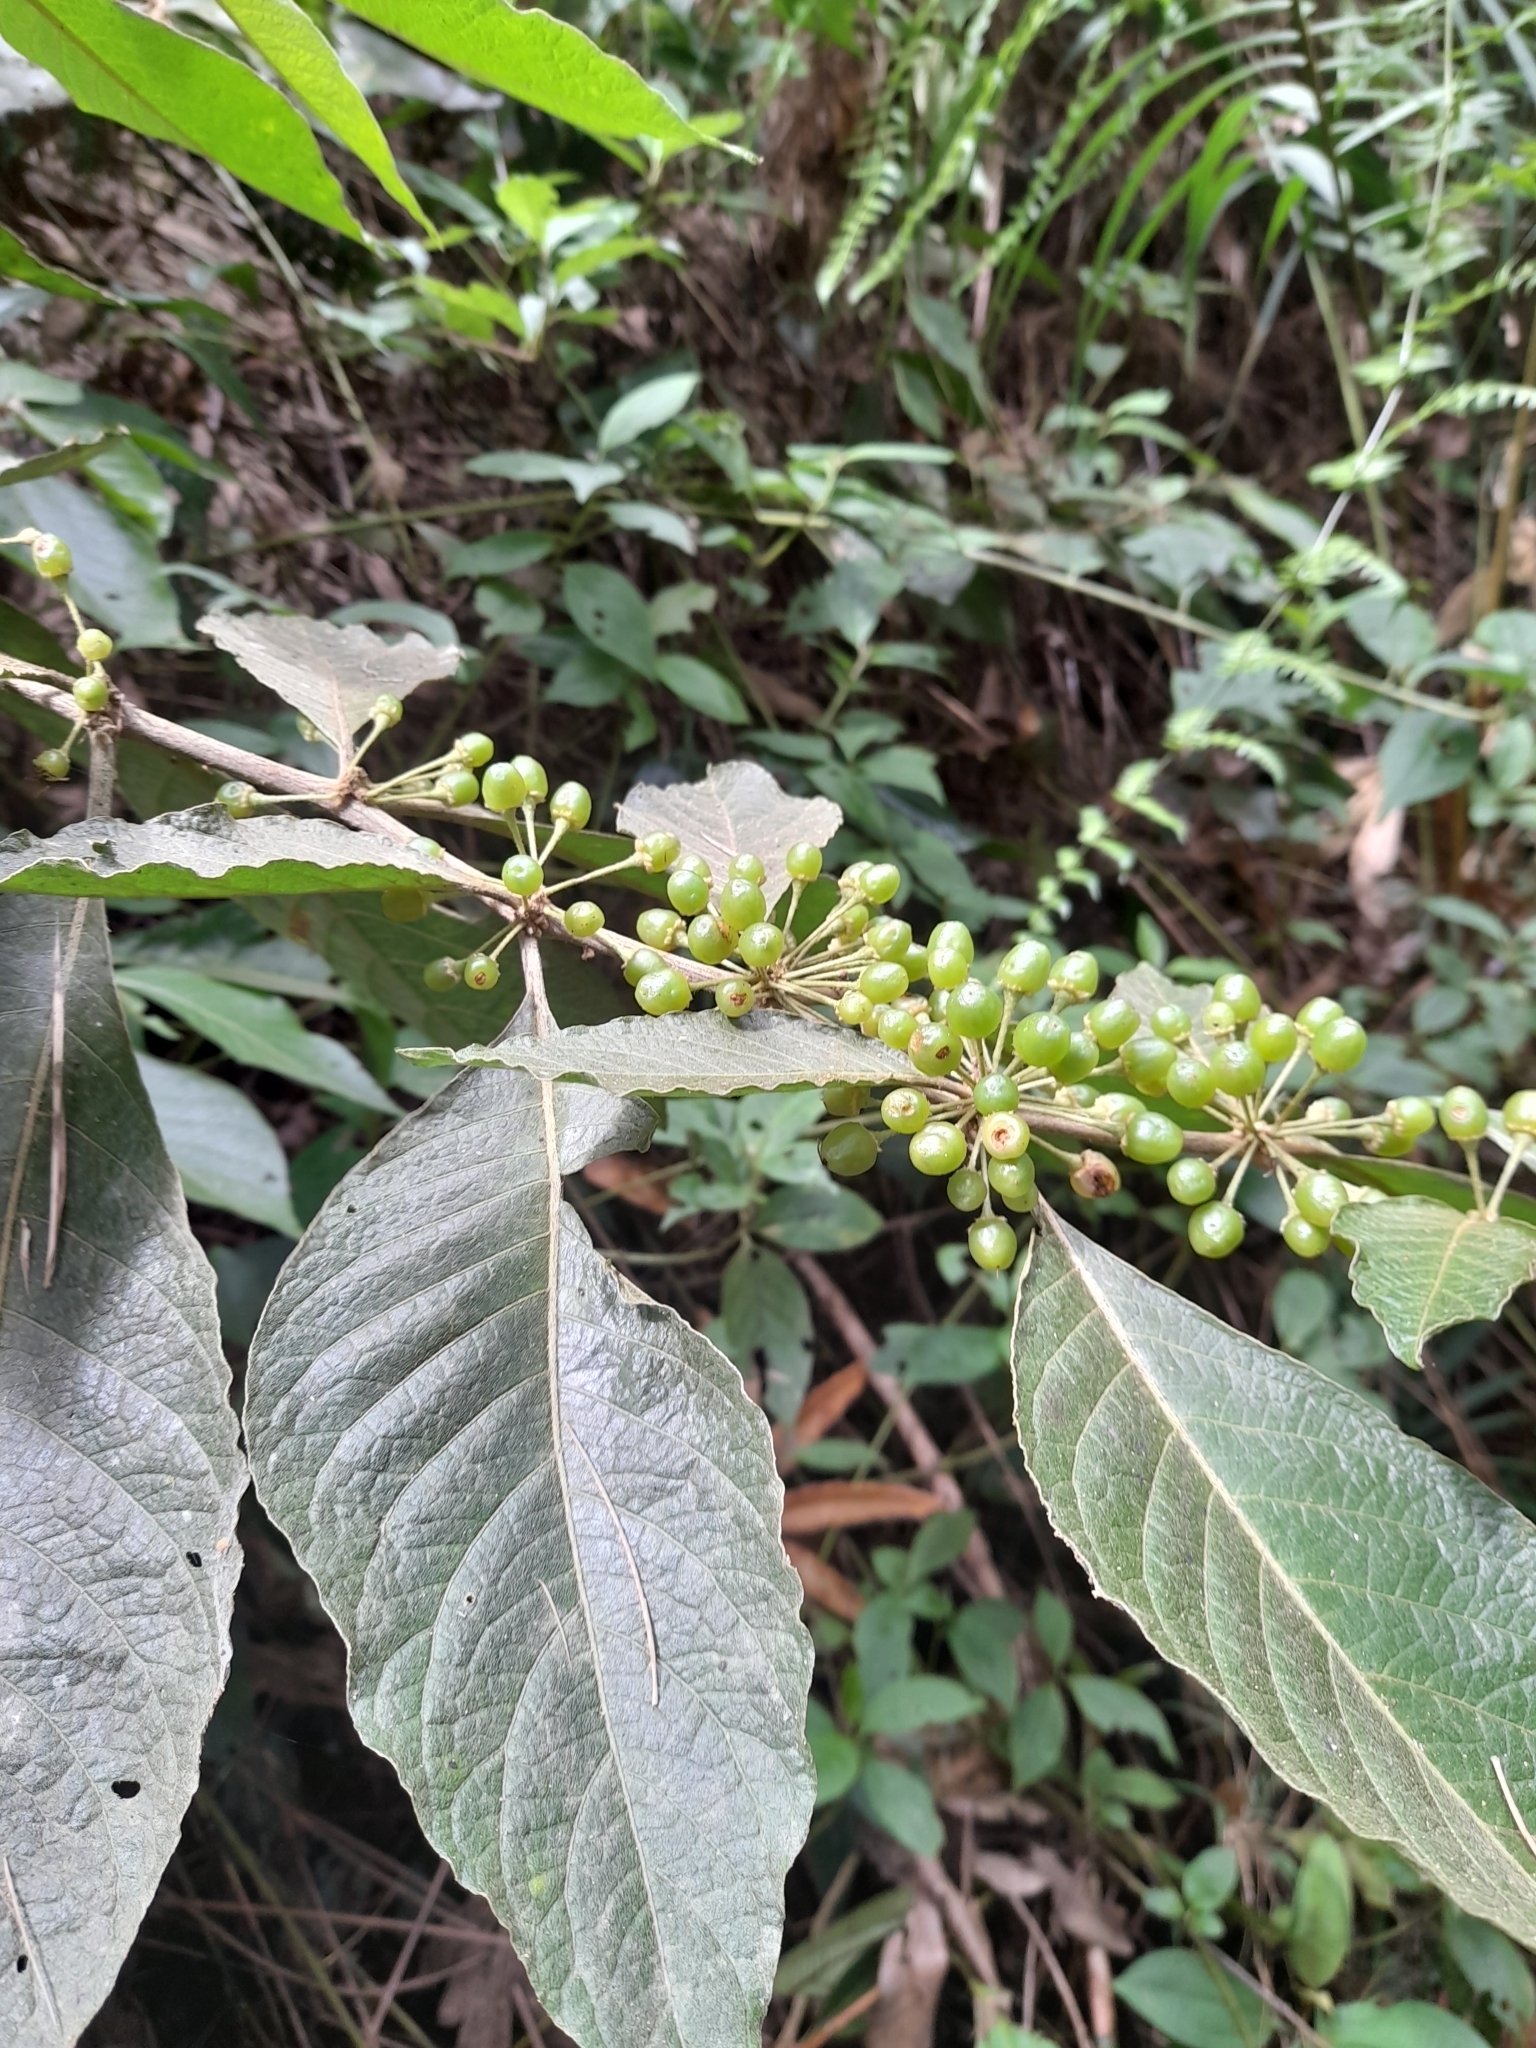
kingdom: Plantae
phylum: Tracheophyta
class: Magnoliopsida
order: Solanales
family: Solanaceae
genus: Lycianthes
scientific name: Lycianthes radiata
